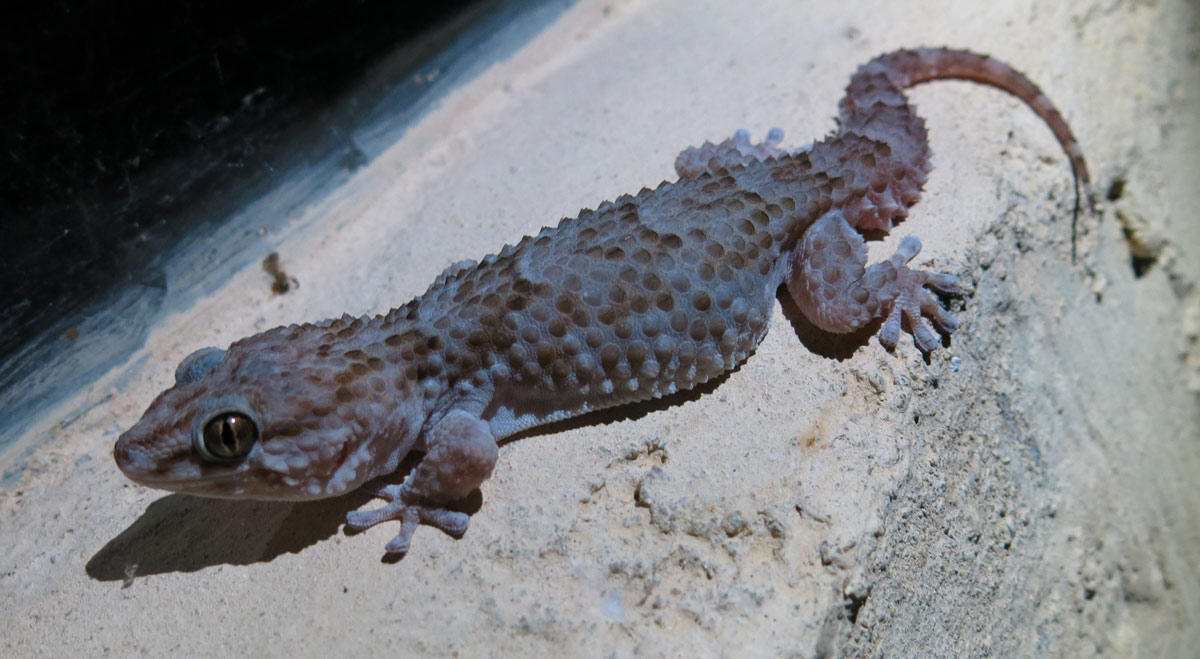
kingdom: Animalia
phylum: Chordata
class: Squamata
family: Gekkonidae
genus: Chondrodactylus
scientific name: Chondrodactylus turneri
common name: Turner’s gecko
